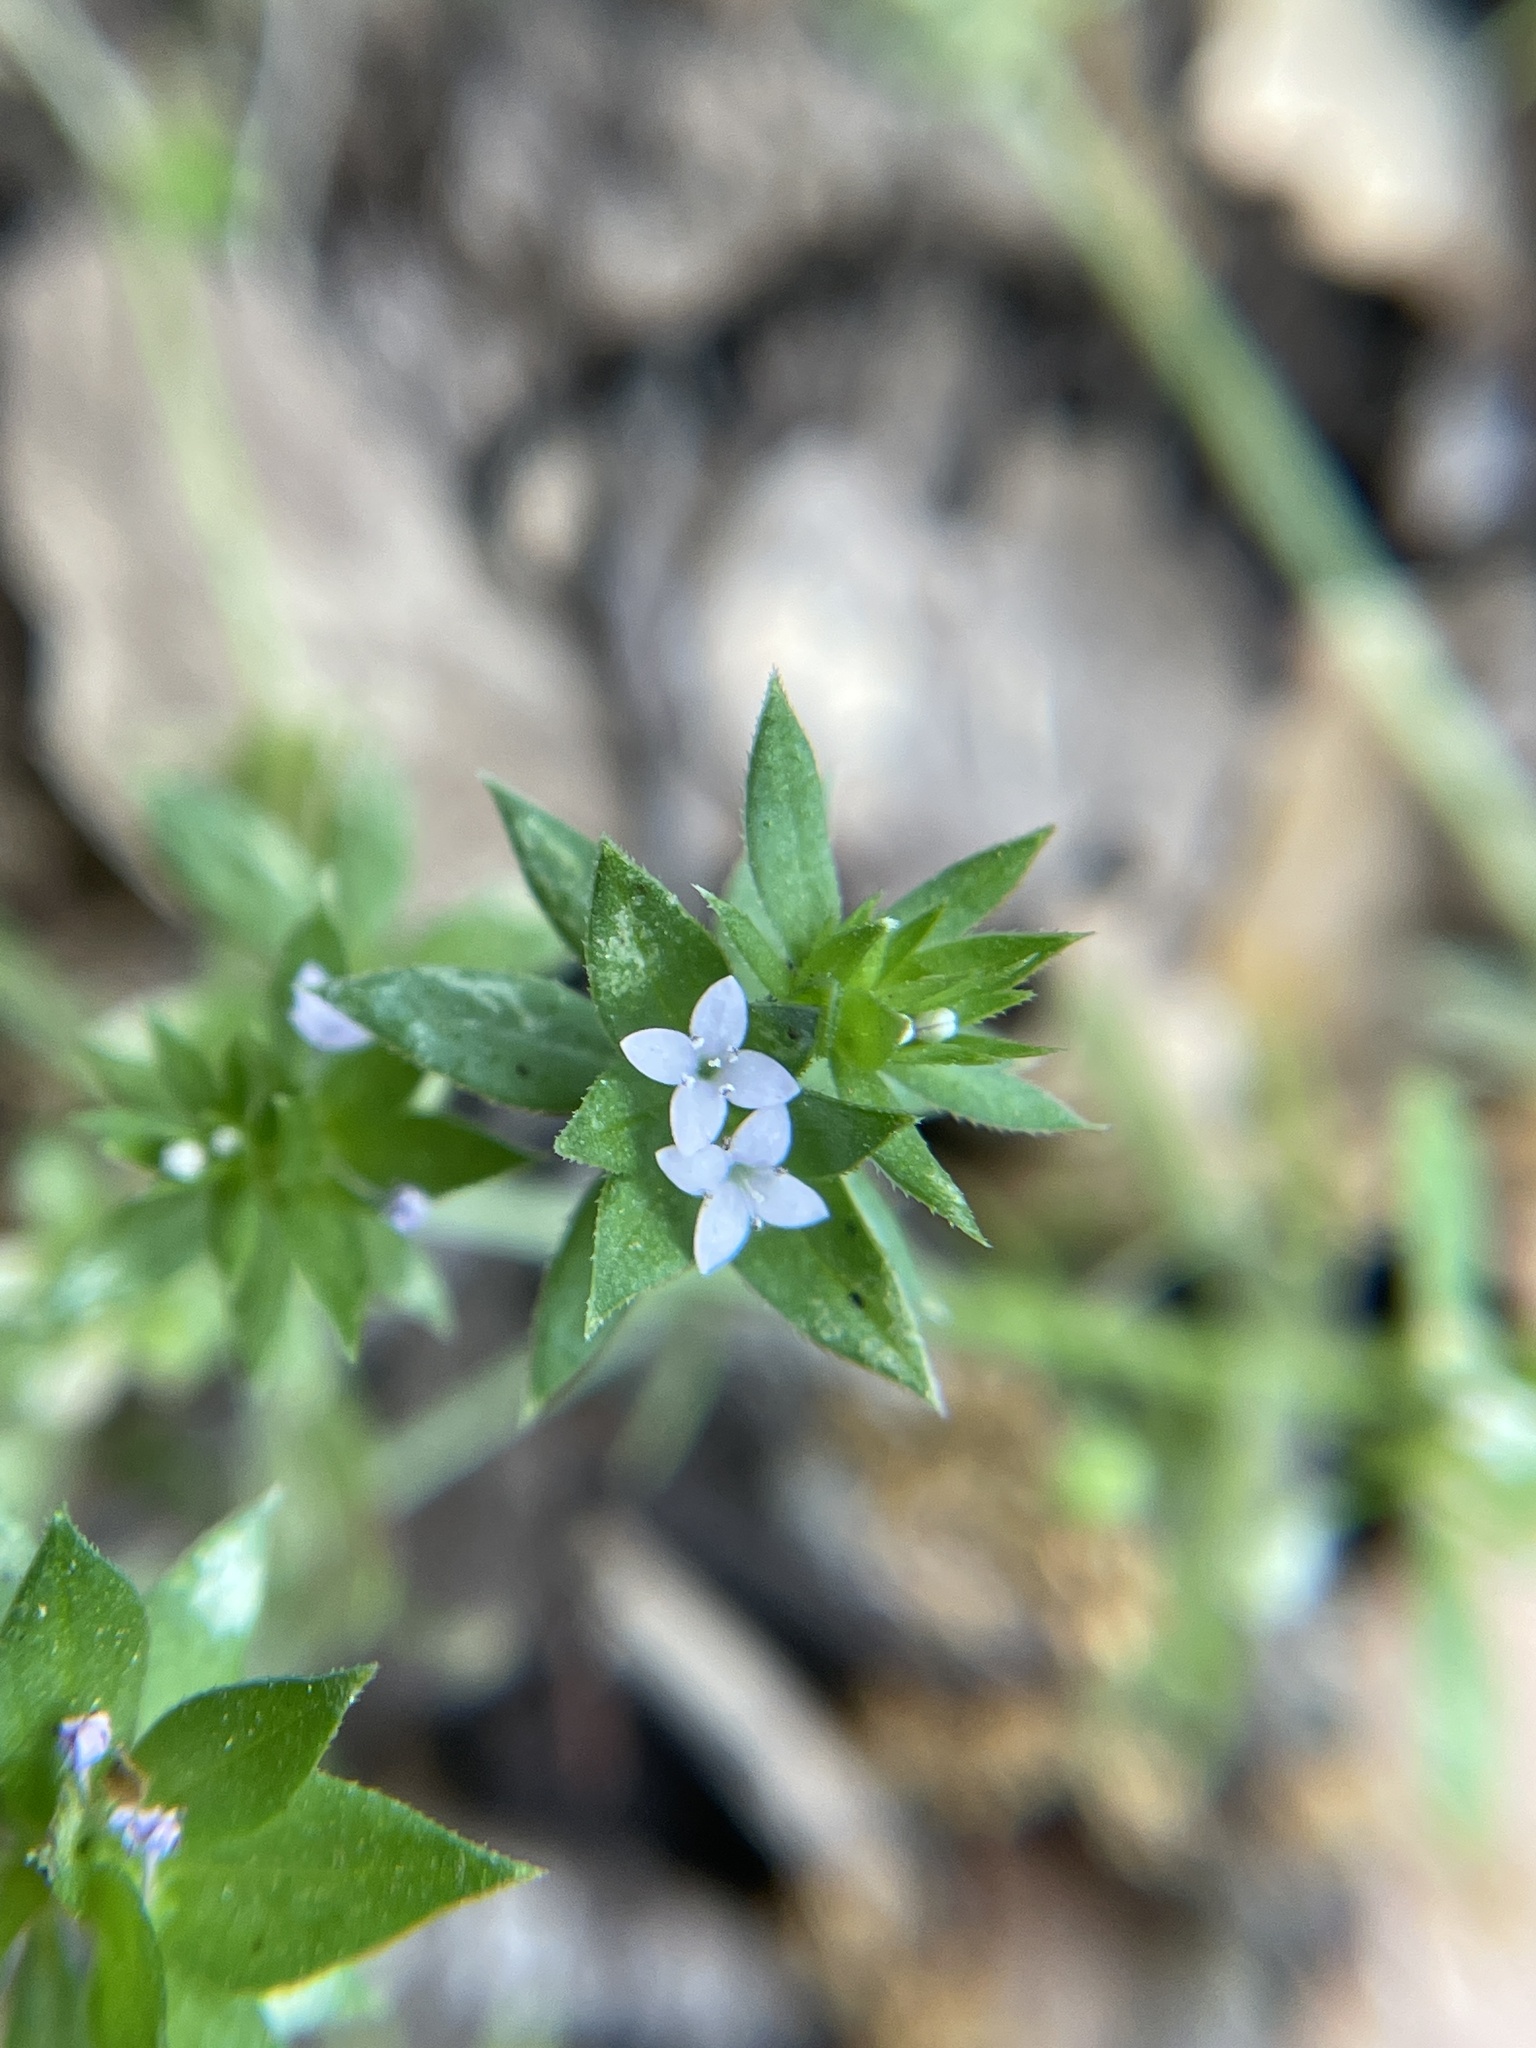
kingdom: Plantae
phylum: Tracheophyta
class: Magnoliopsida
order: Gentianales
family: Rubiaceae
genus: Sherardia
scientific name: Sherardia arvensis
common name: Field madder
